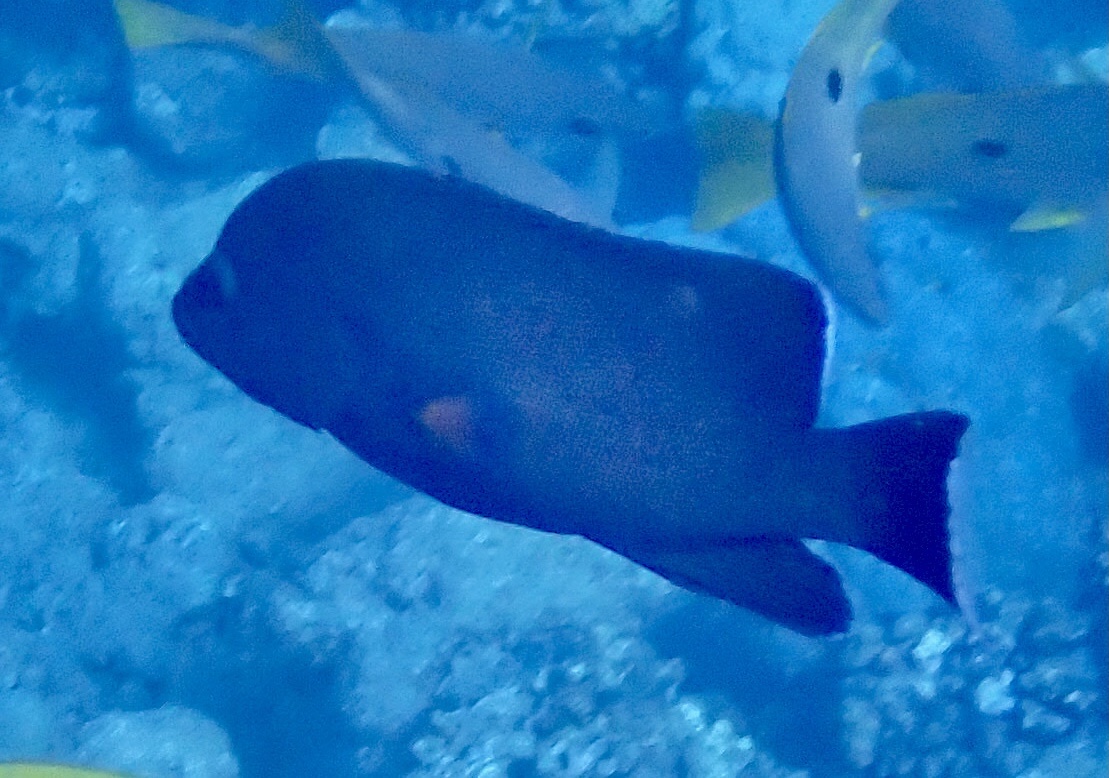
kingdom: Animalia
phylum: Chordata
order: Perciformes
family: Serranidae
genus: Aethaloperca
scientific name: Aethaloperca rogaa
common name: Redmouth grouper
